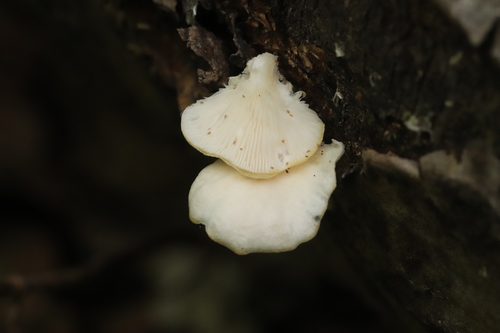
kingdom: Fungi
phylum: Basidiomycota
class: Agaricomycetes
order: Agaricales
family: Pleurotaceae
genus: Pleurotus
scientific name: Pleurotus pulmonarius
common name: Pale oyster
